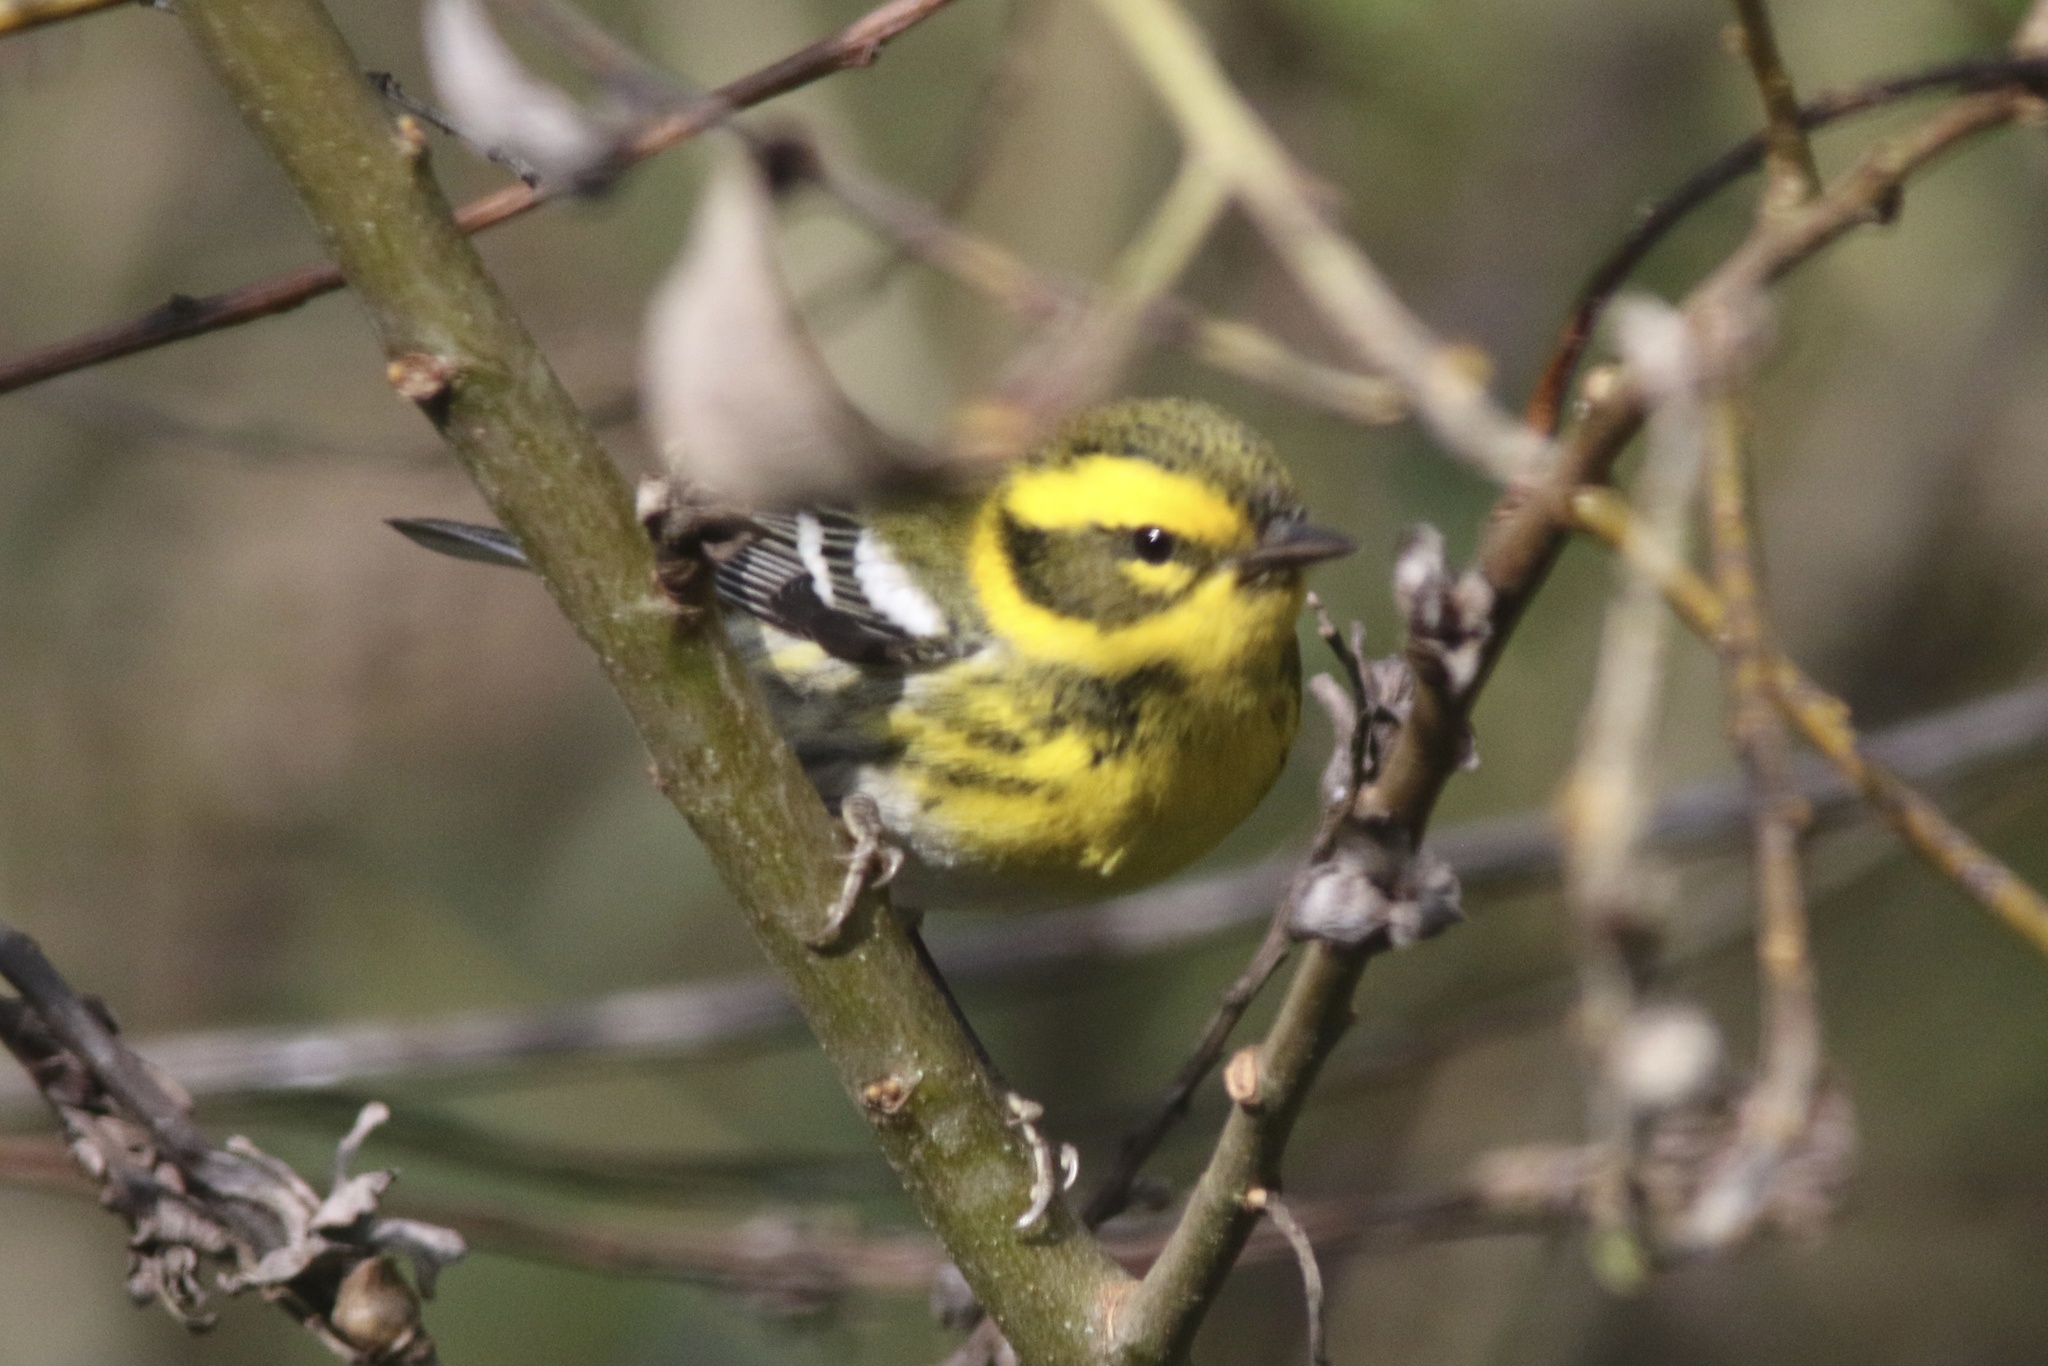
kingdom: Animalia
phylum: Chordata
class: Aves
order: Passeriformes
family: Parulidae
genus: Setophaga
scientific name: Setophaga townsendi
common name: Townsend's warbler
